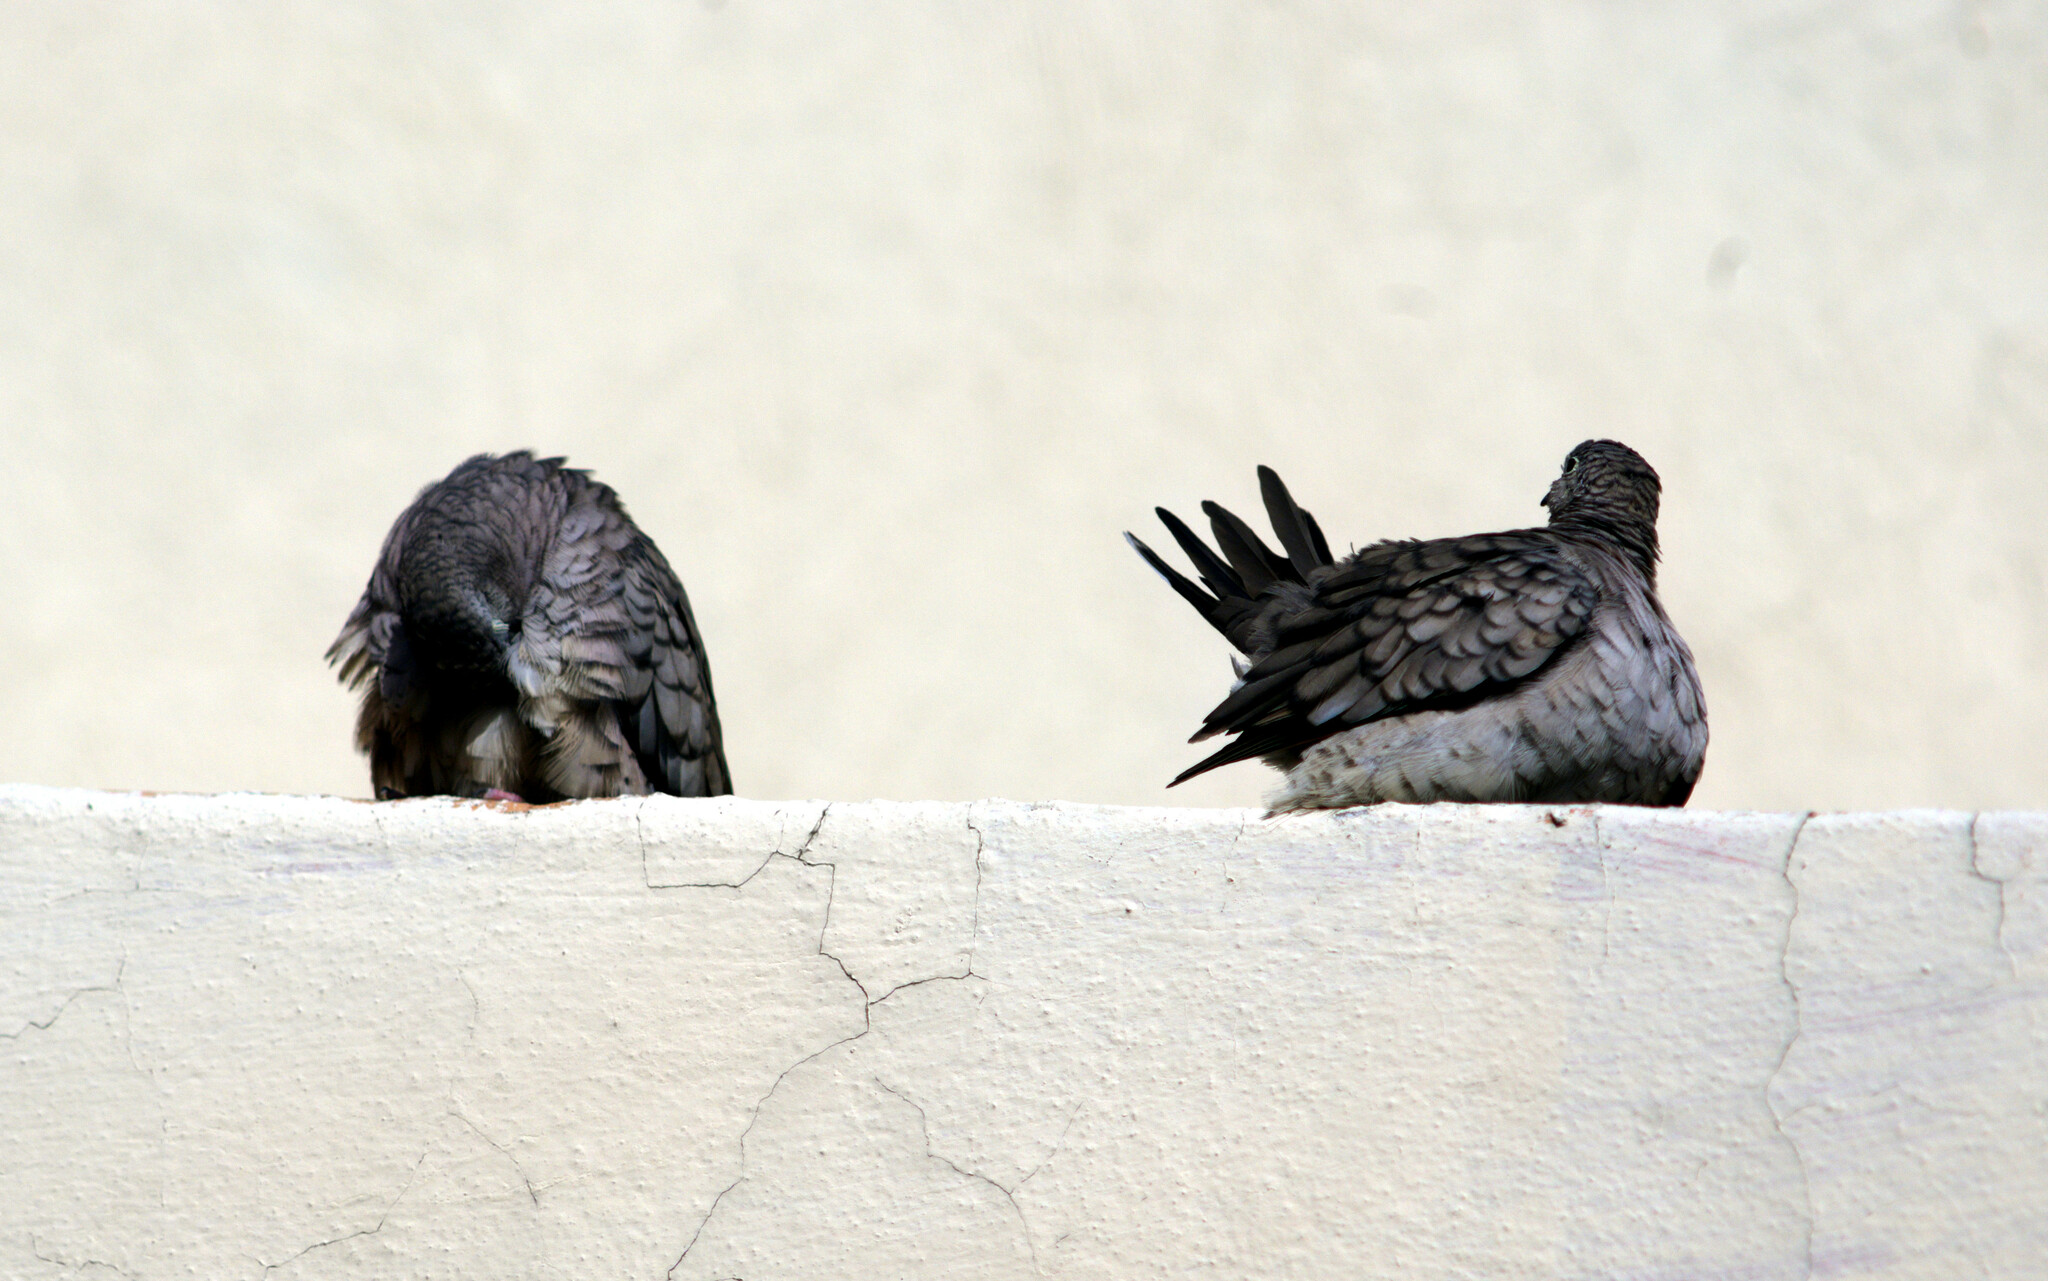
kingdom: Animalia
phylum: Chordata
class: Aves
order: Columbiformes
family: Columbidae
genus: Columbina
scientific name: Columbina inca
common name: Inca dove
